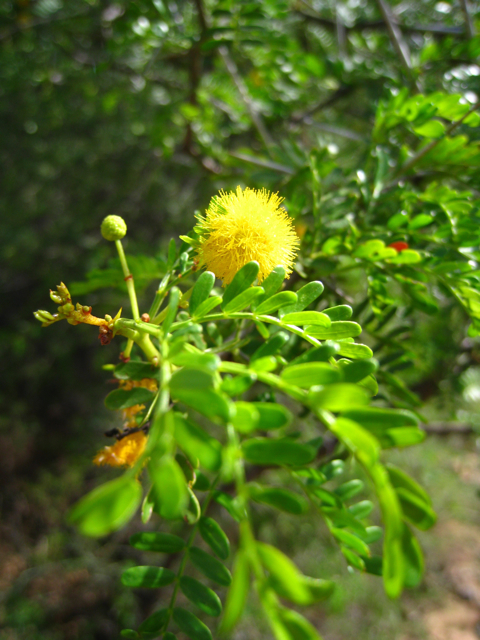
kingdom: Plantae
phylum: Tracheophyta
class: Magnoliopsida
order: Fabales
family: Fabaceae
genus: Vachellia
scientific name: Vachellia karroo
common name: Sweet thorn
